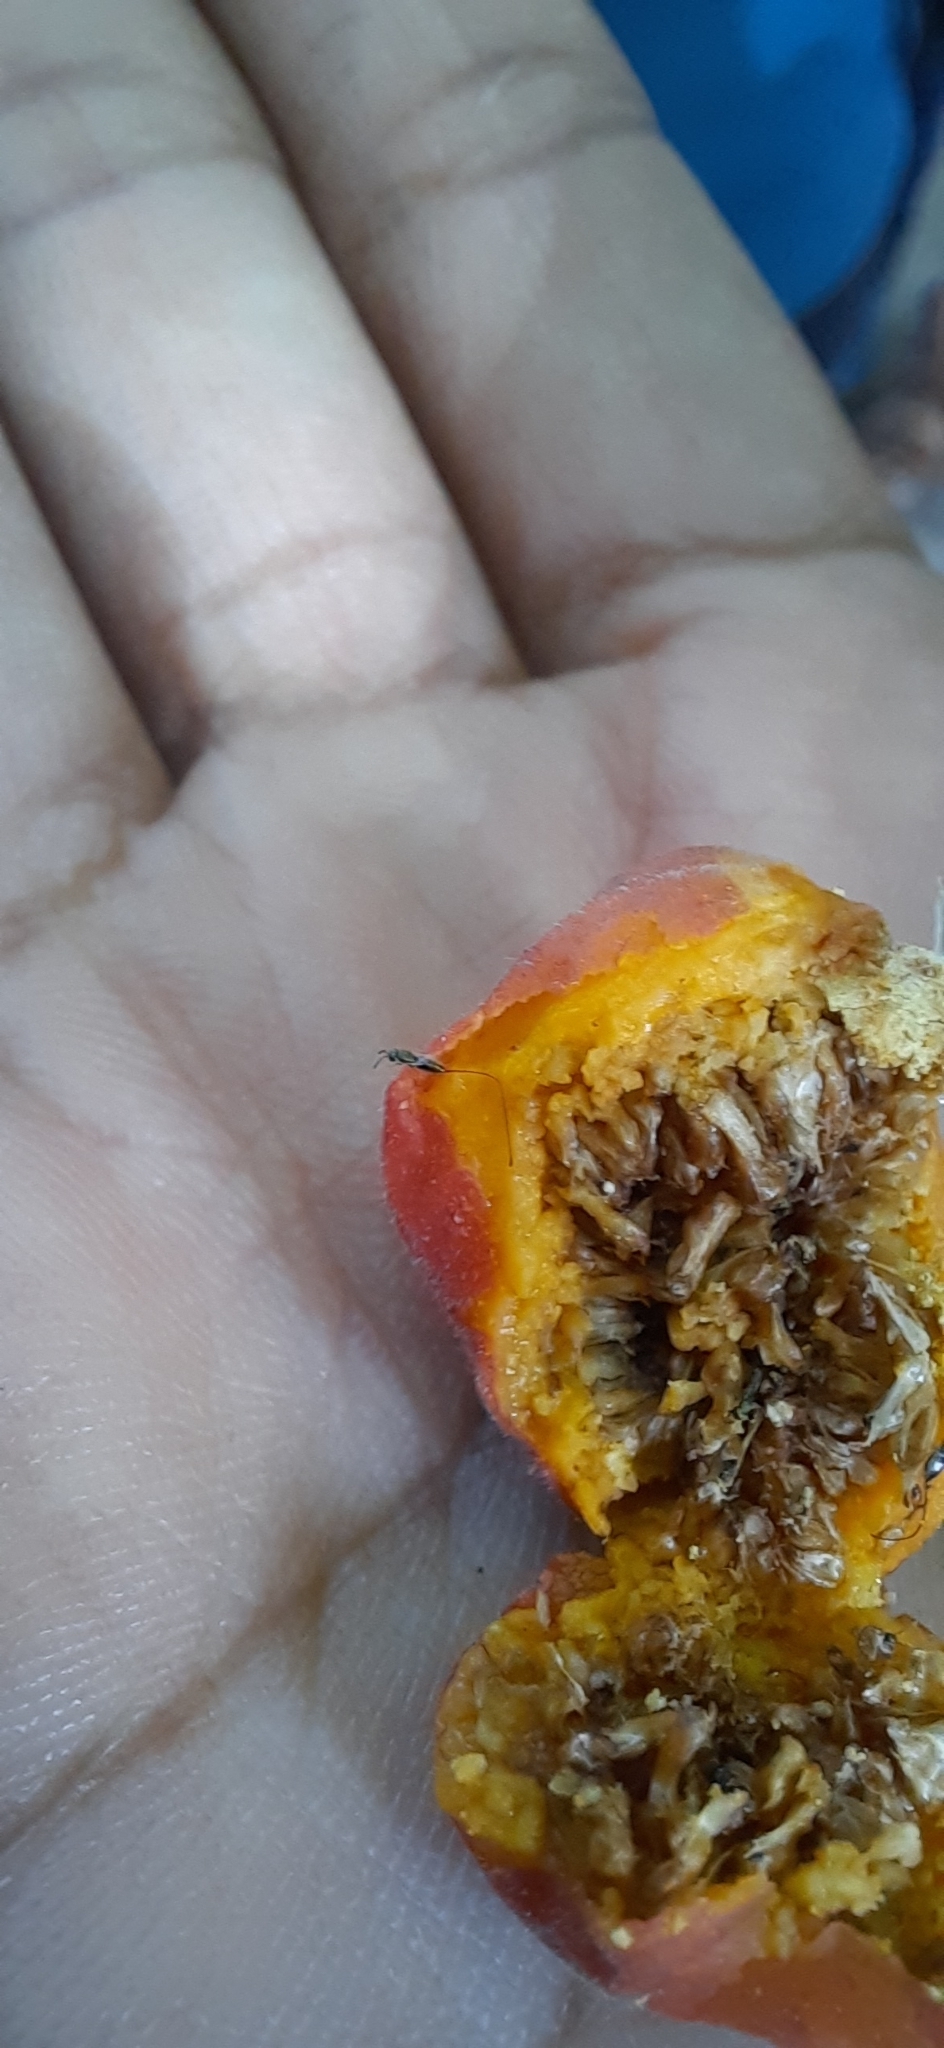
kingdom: Plantae
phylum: Tracheophyta
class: Magnoliopsida
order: Rosales
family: Moraceae
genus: Ficus
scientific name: Ficus benghalensis
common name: Indian banyan
